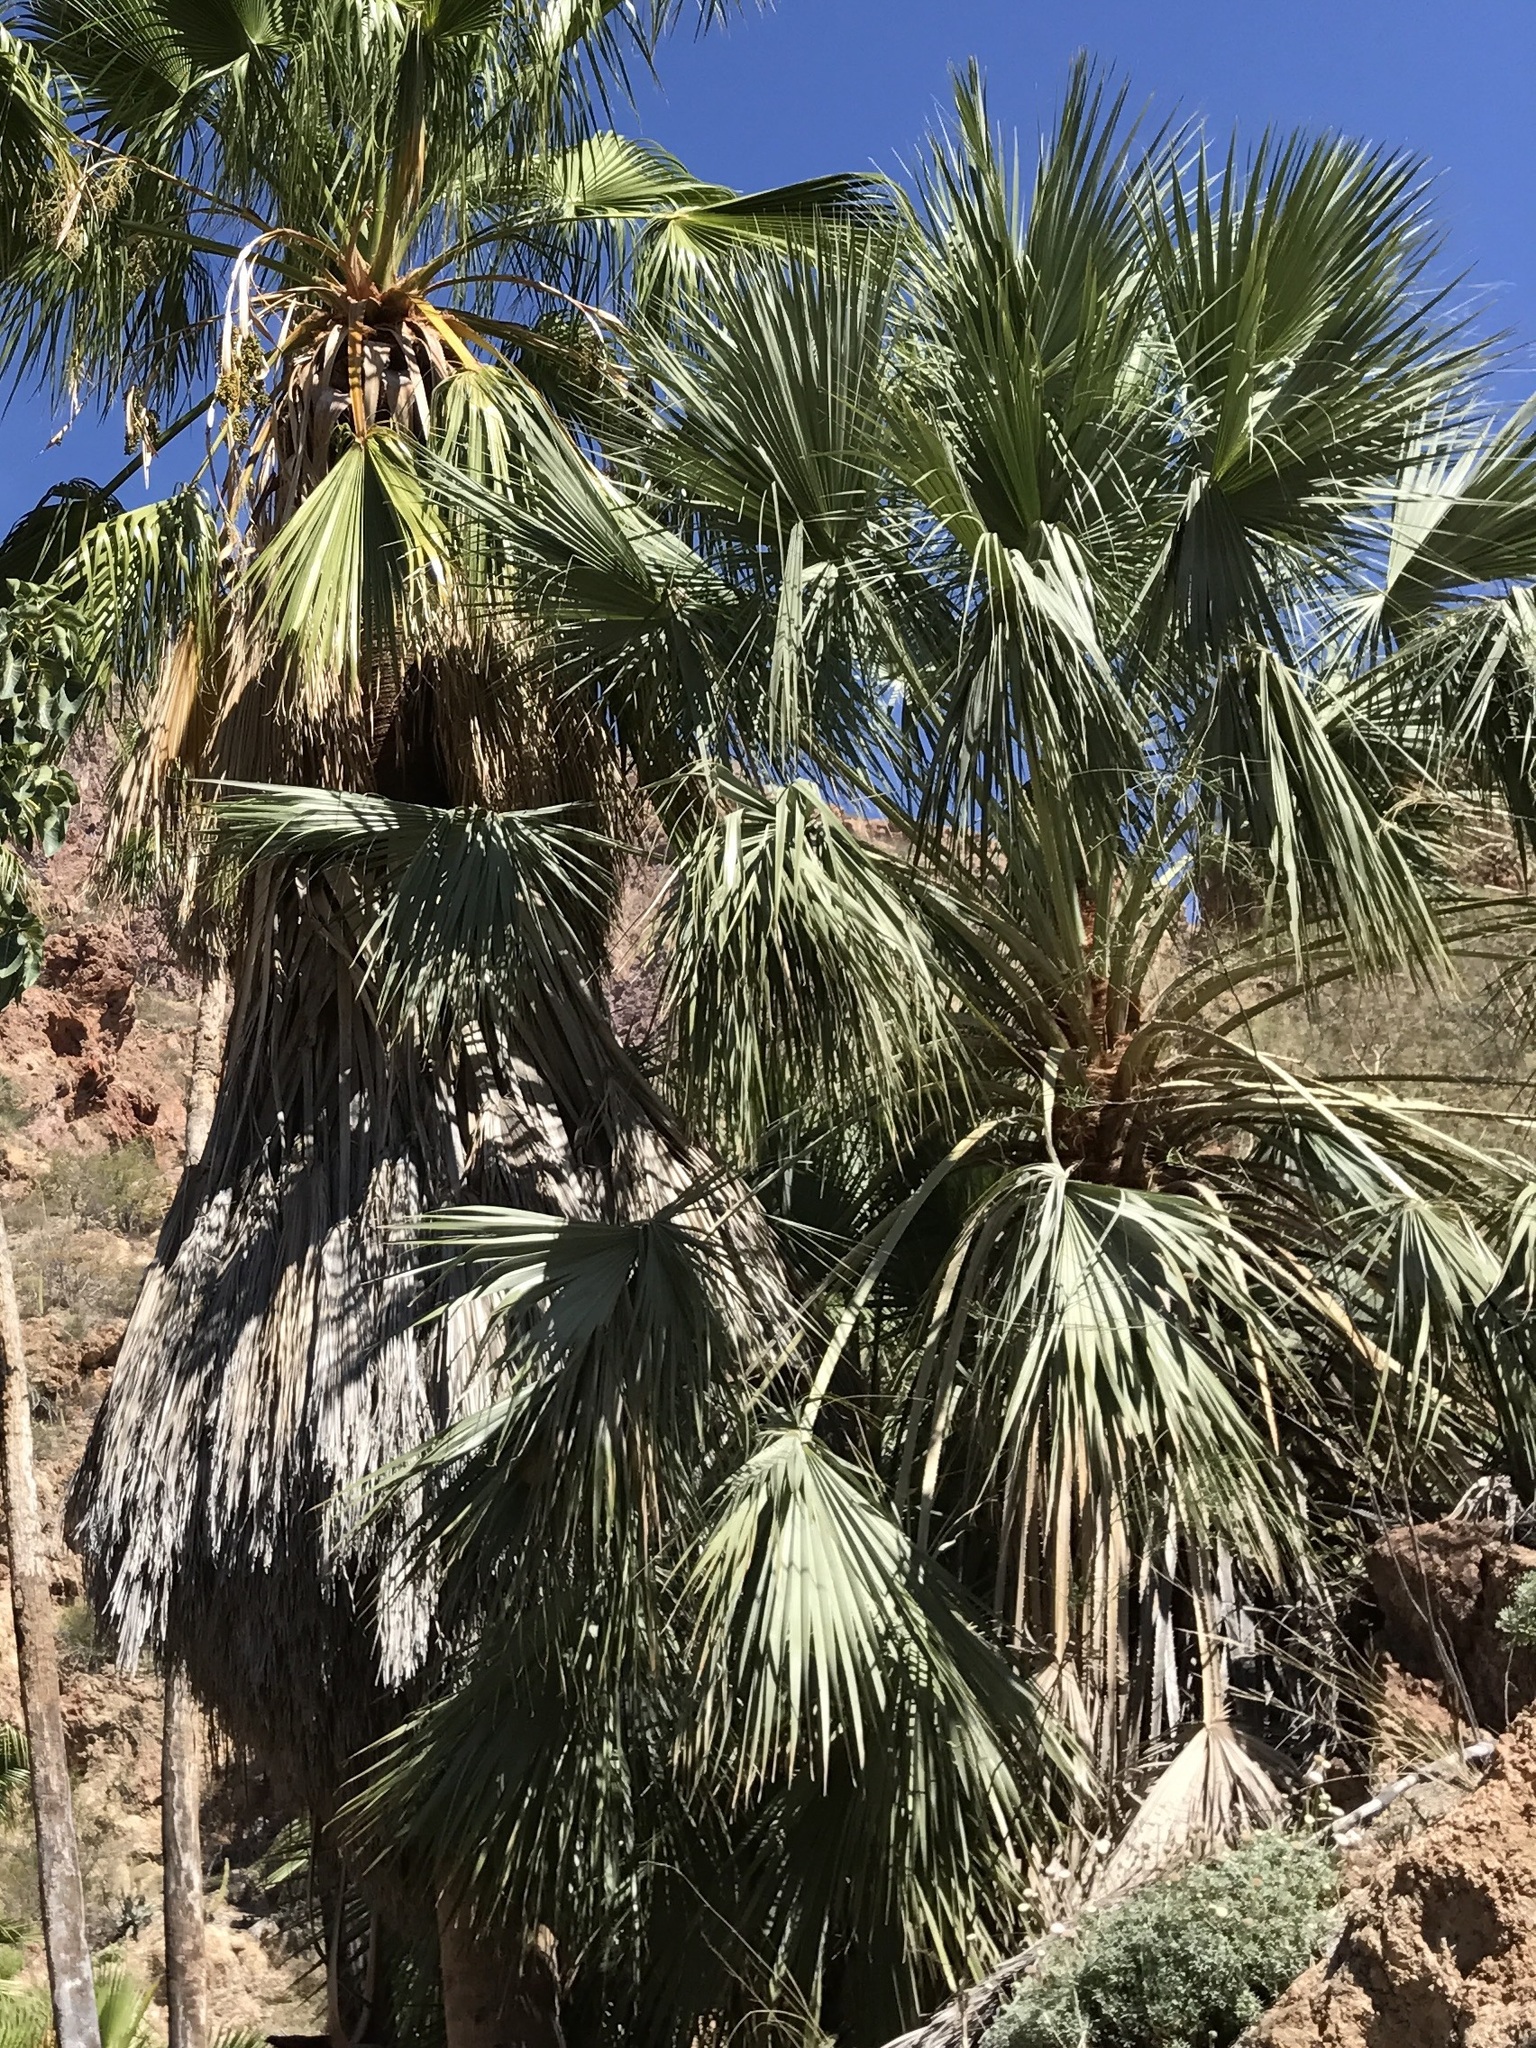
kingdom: Plantae
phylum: Tracheophyta
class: Liliopsida
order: Arecales
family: Arecaceae
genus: Brahea
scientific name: Brahea brandegeei
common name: San jose hesper palm
